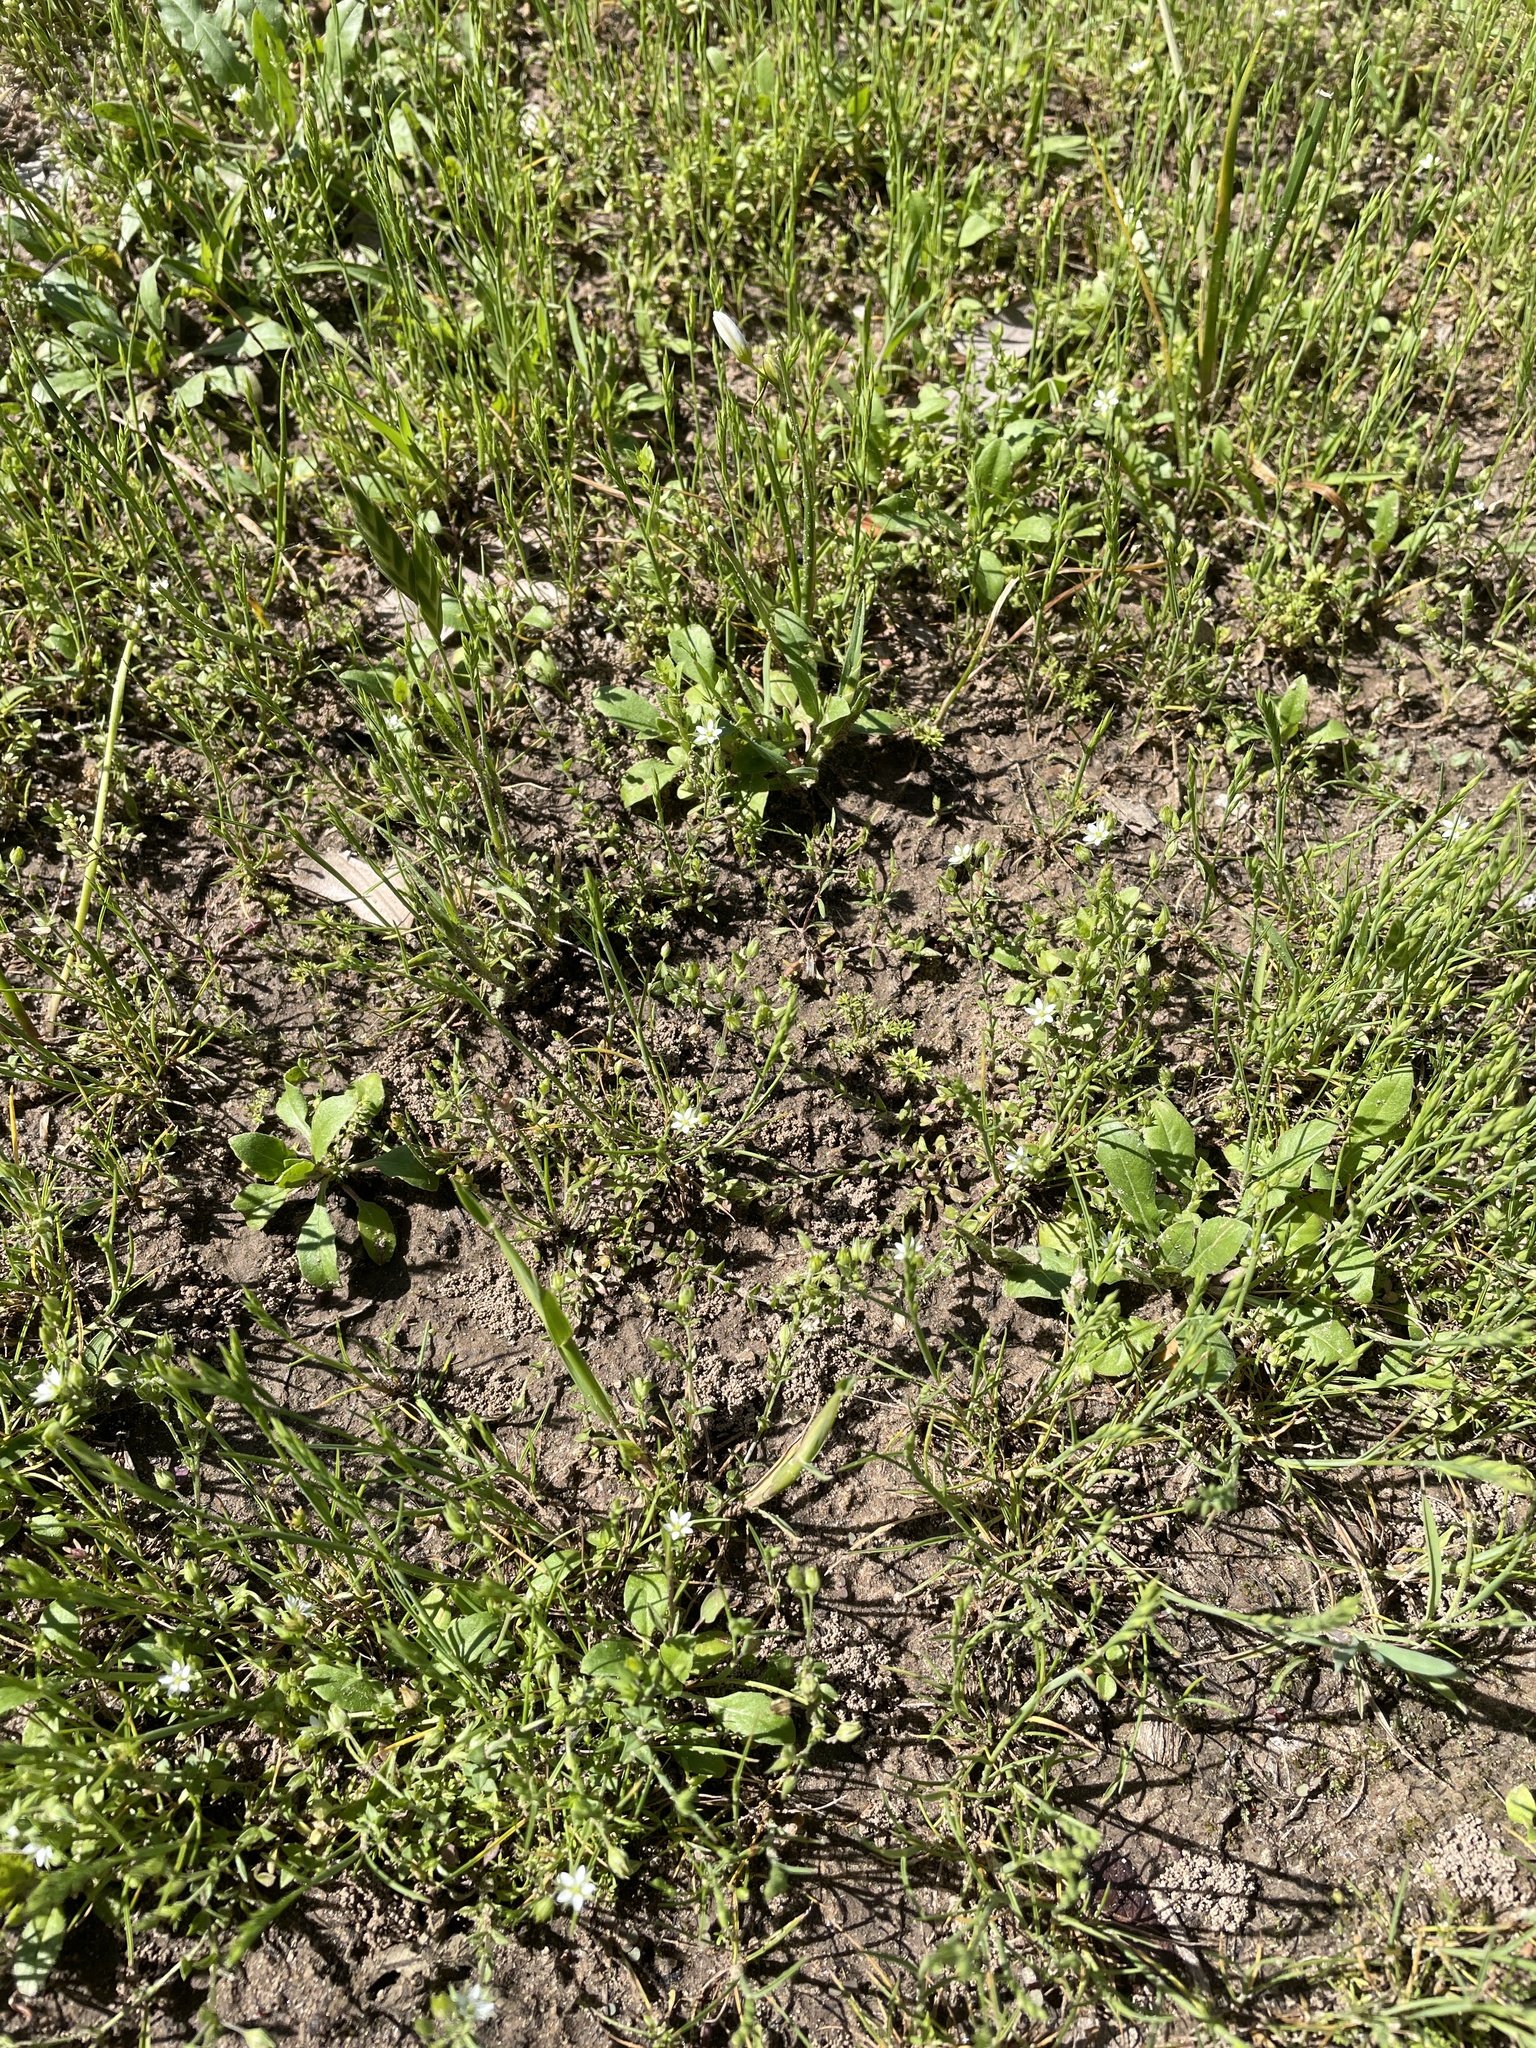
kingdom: Plantae
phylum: Tracheophyta
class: Magnoliopsida
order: Caryophyllales
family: Caryophyllaceae
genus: Arenaria
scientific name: Arenaria serpyllifolia
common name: Thyme-leaved sandwort
